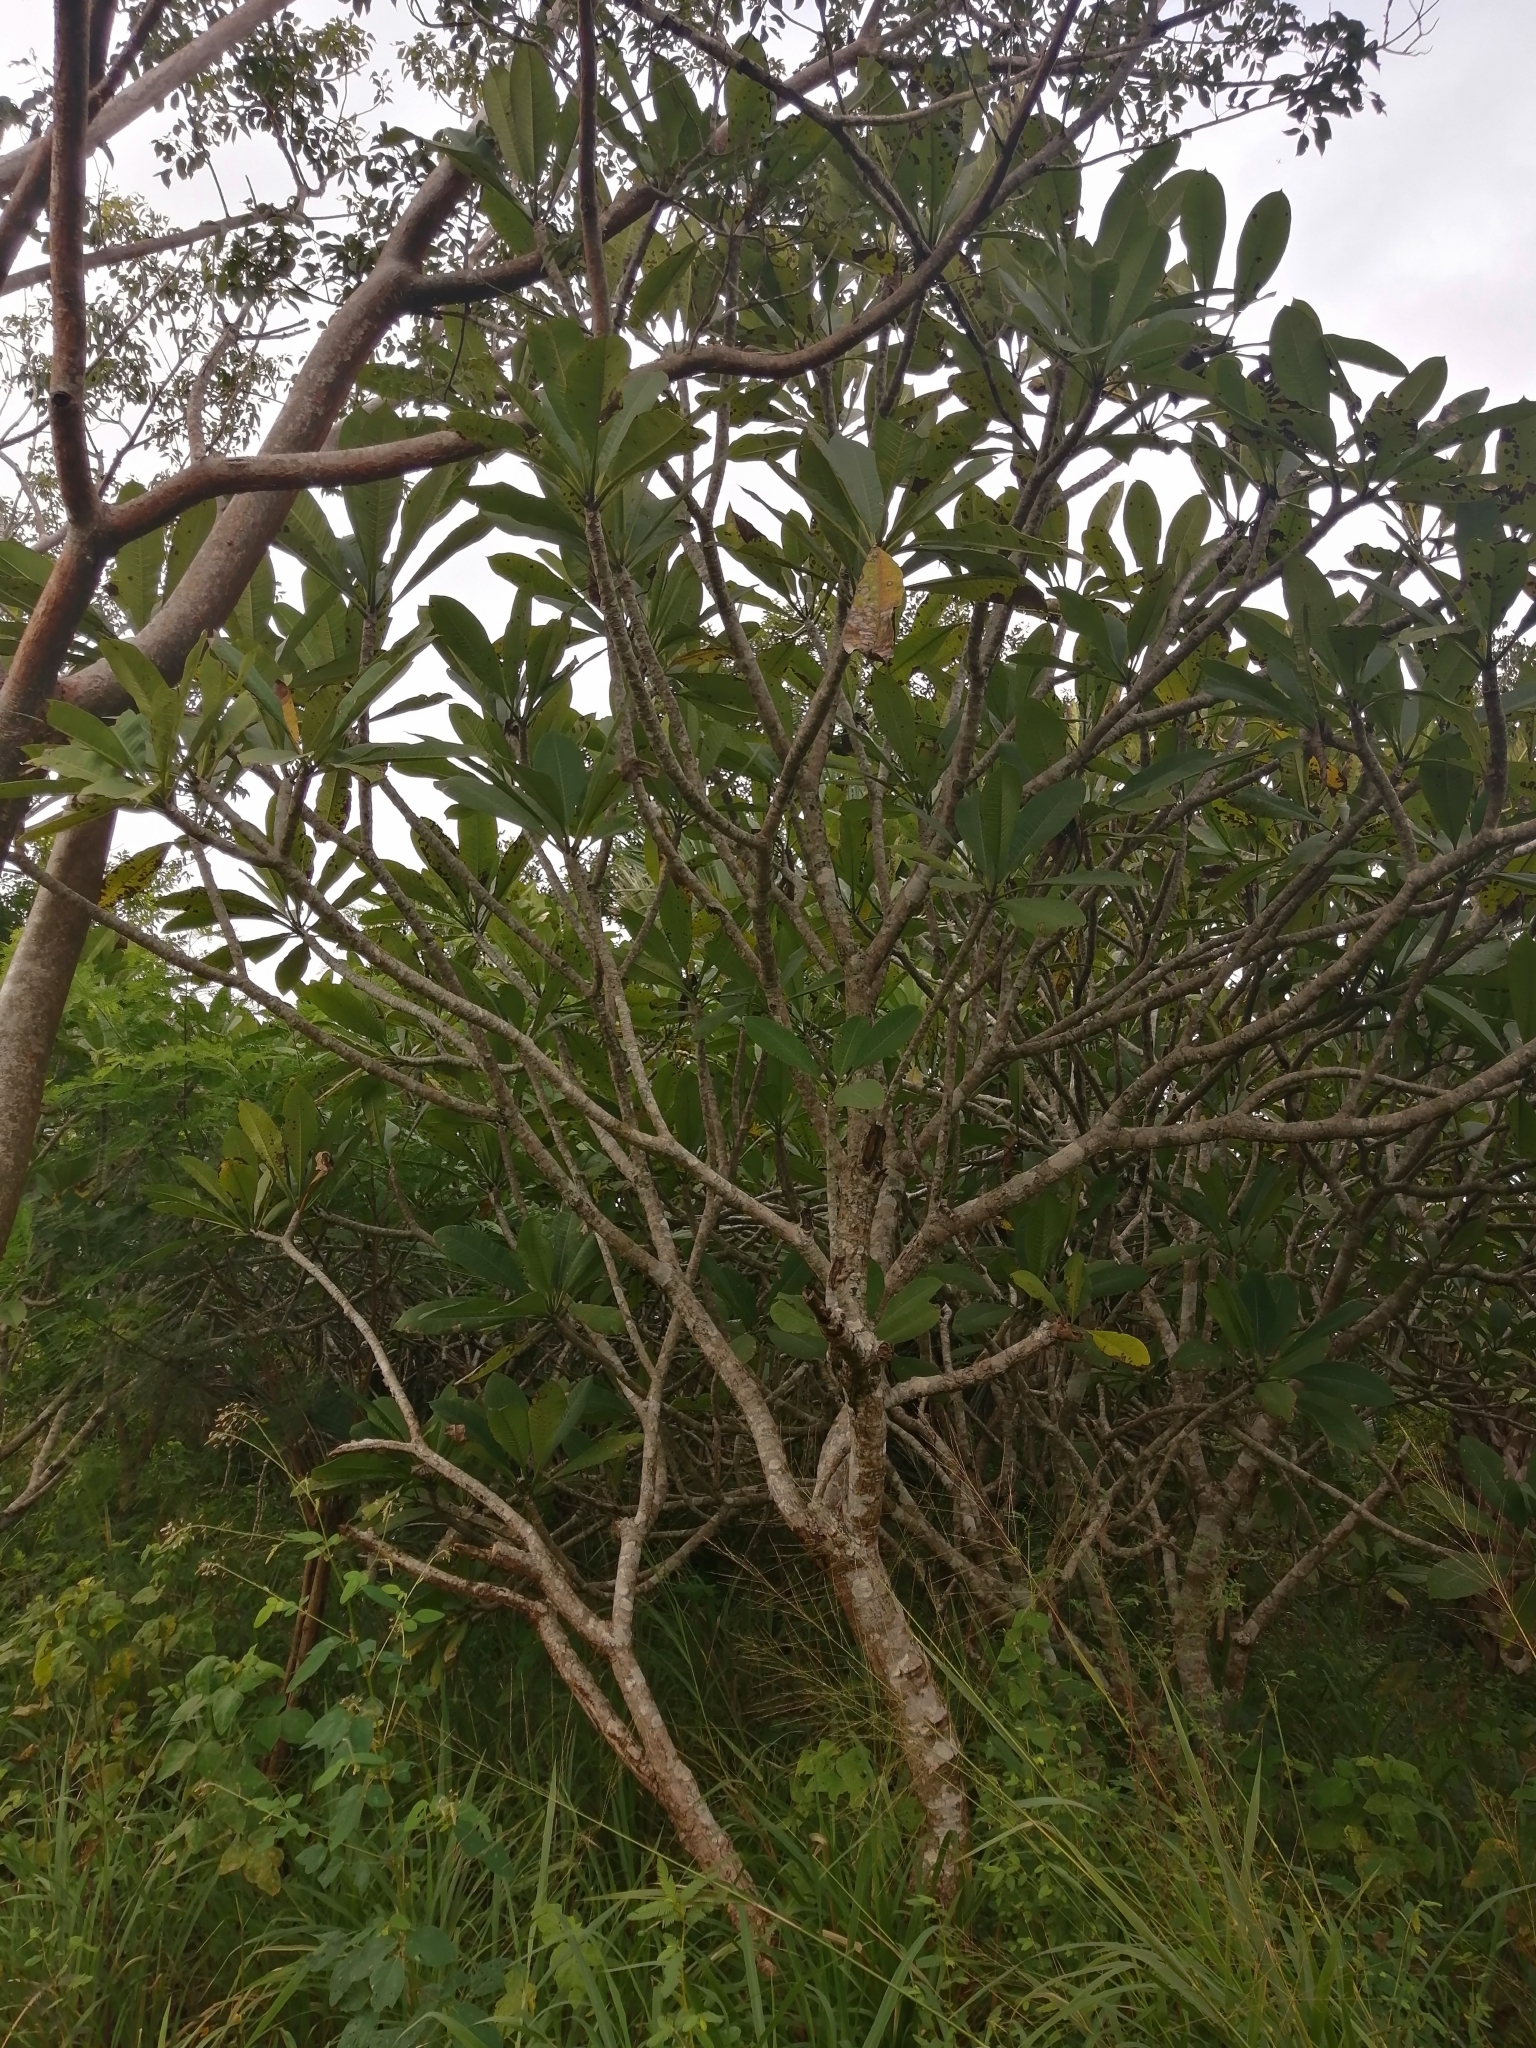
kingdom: Plantae
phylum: Tracheophyta
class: Magnoliopsida
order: Gentianales
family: Apocynaceae
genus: Plumeria
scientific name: Plumeria obtusa
